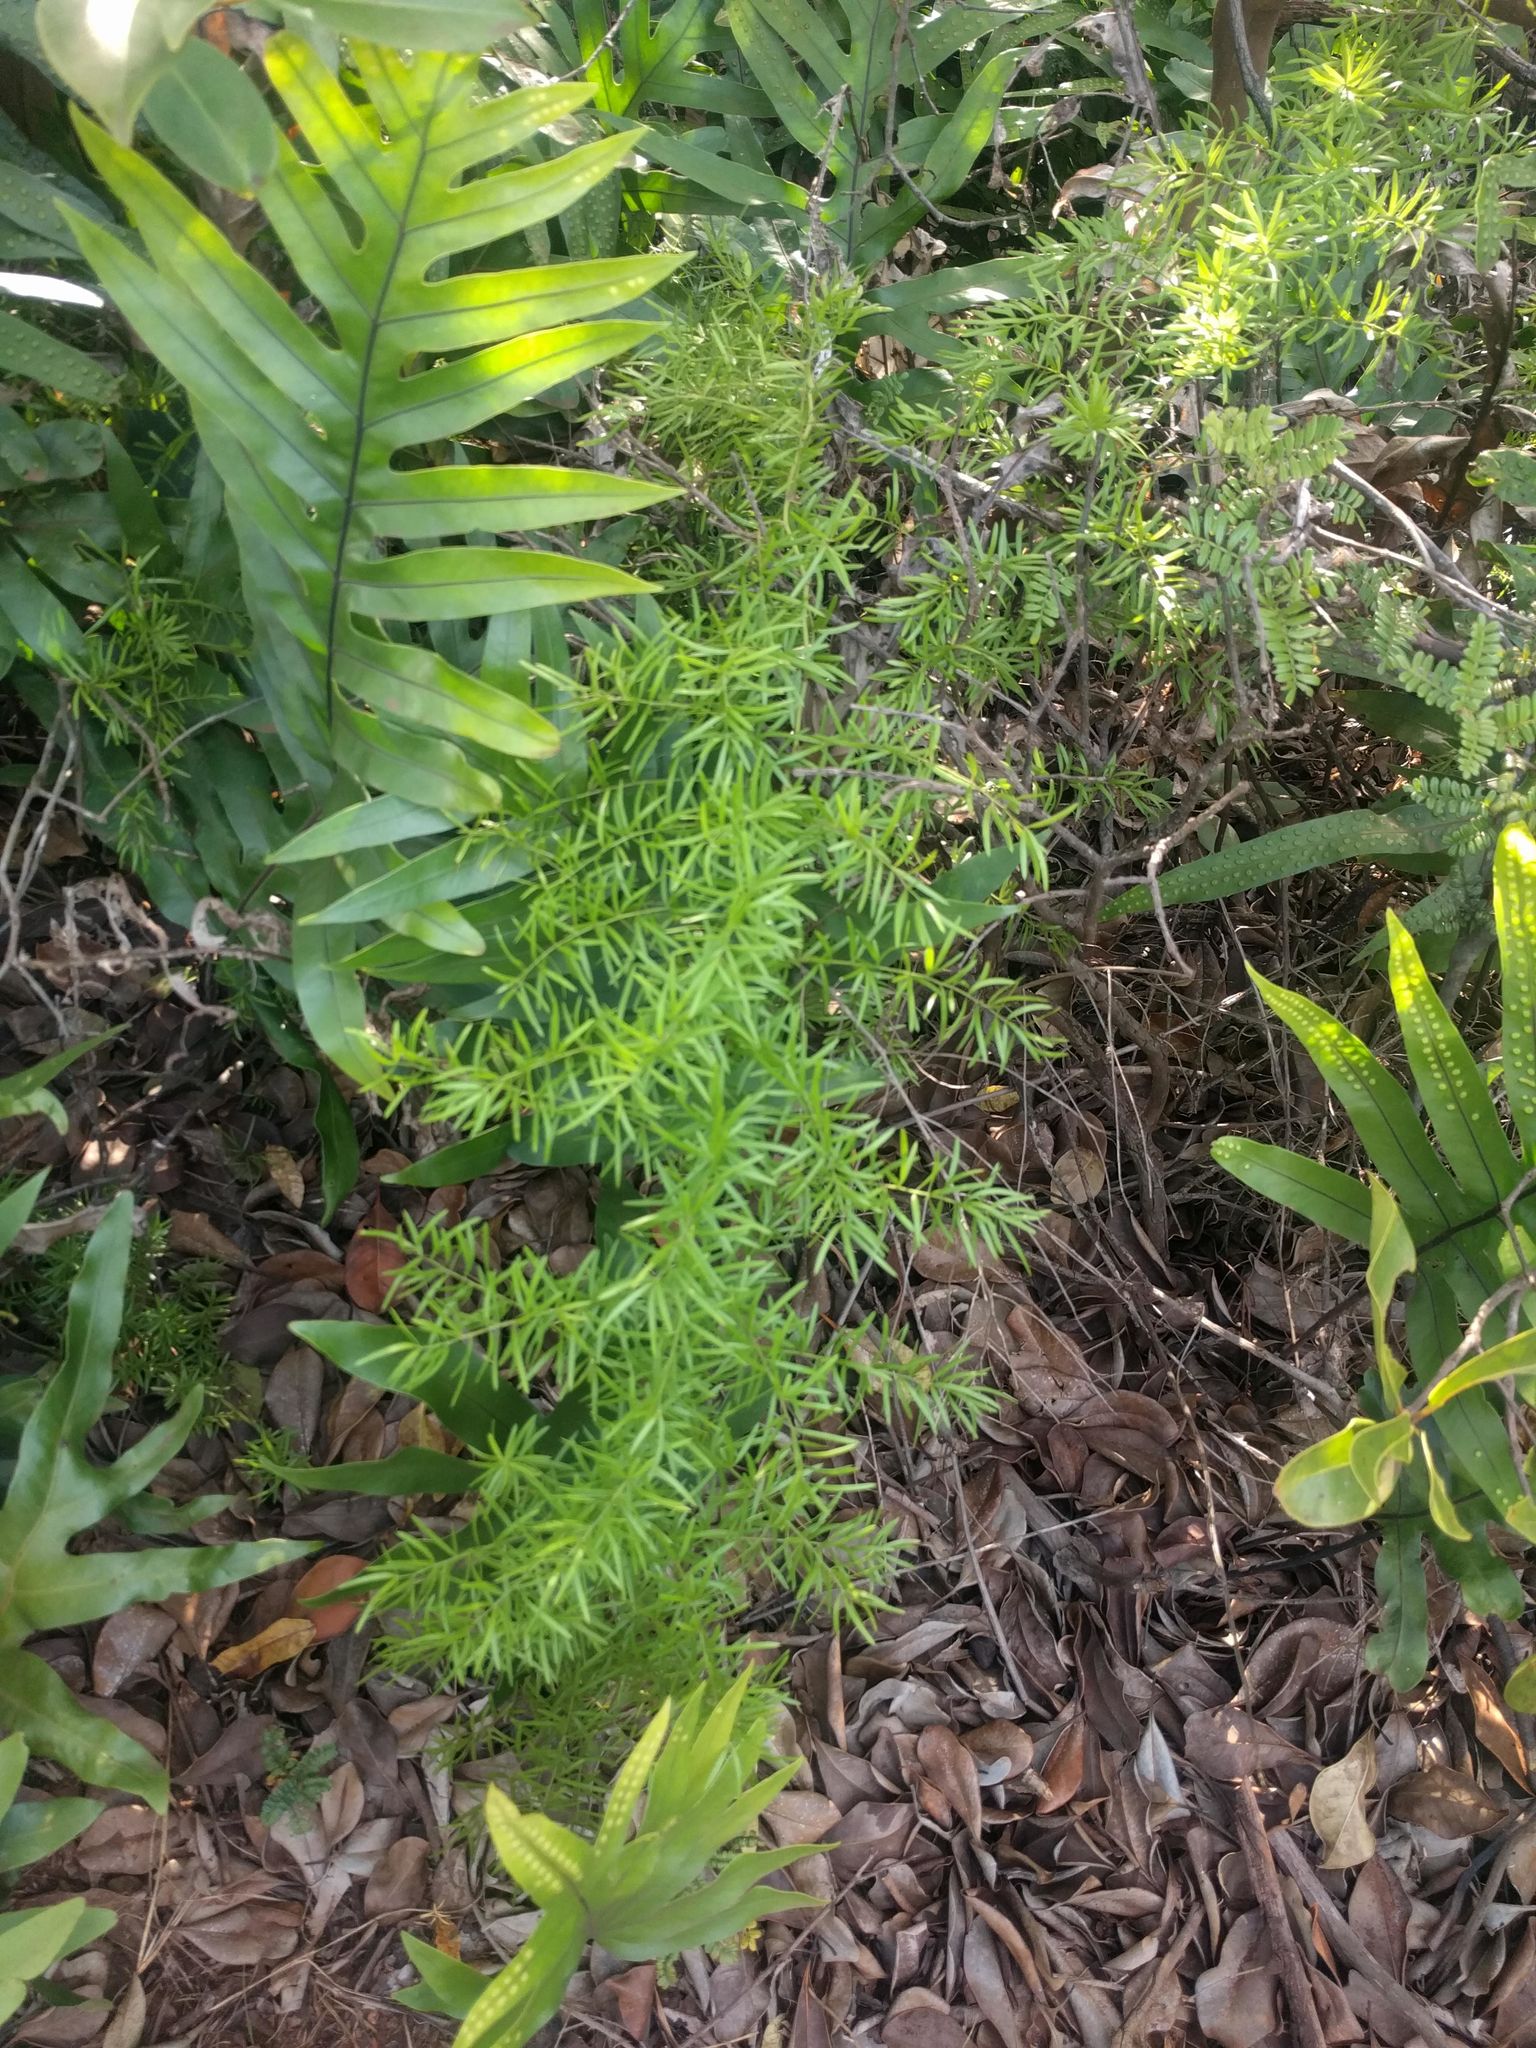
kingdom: Plantae
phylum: Tracheophyta
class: Liliopsida
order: Asparagales
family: Asparagaceae
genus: Asparagus
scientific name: Asparagus aethiopicus
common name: Sprenger's asparagus fern
